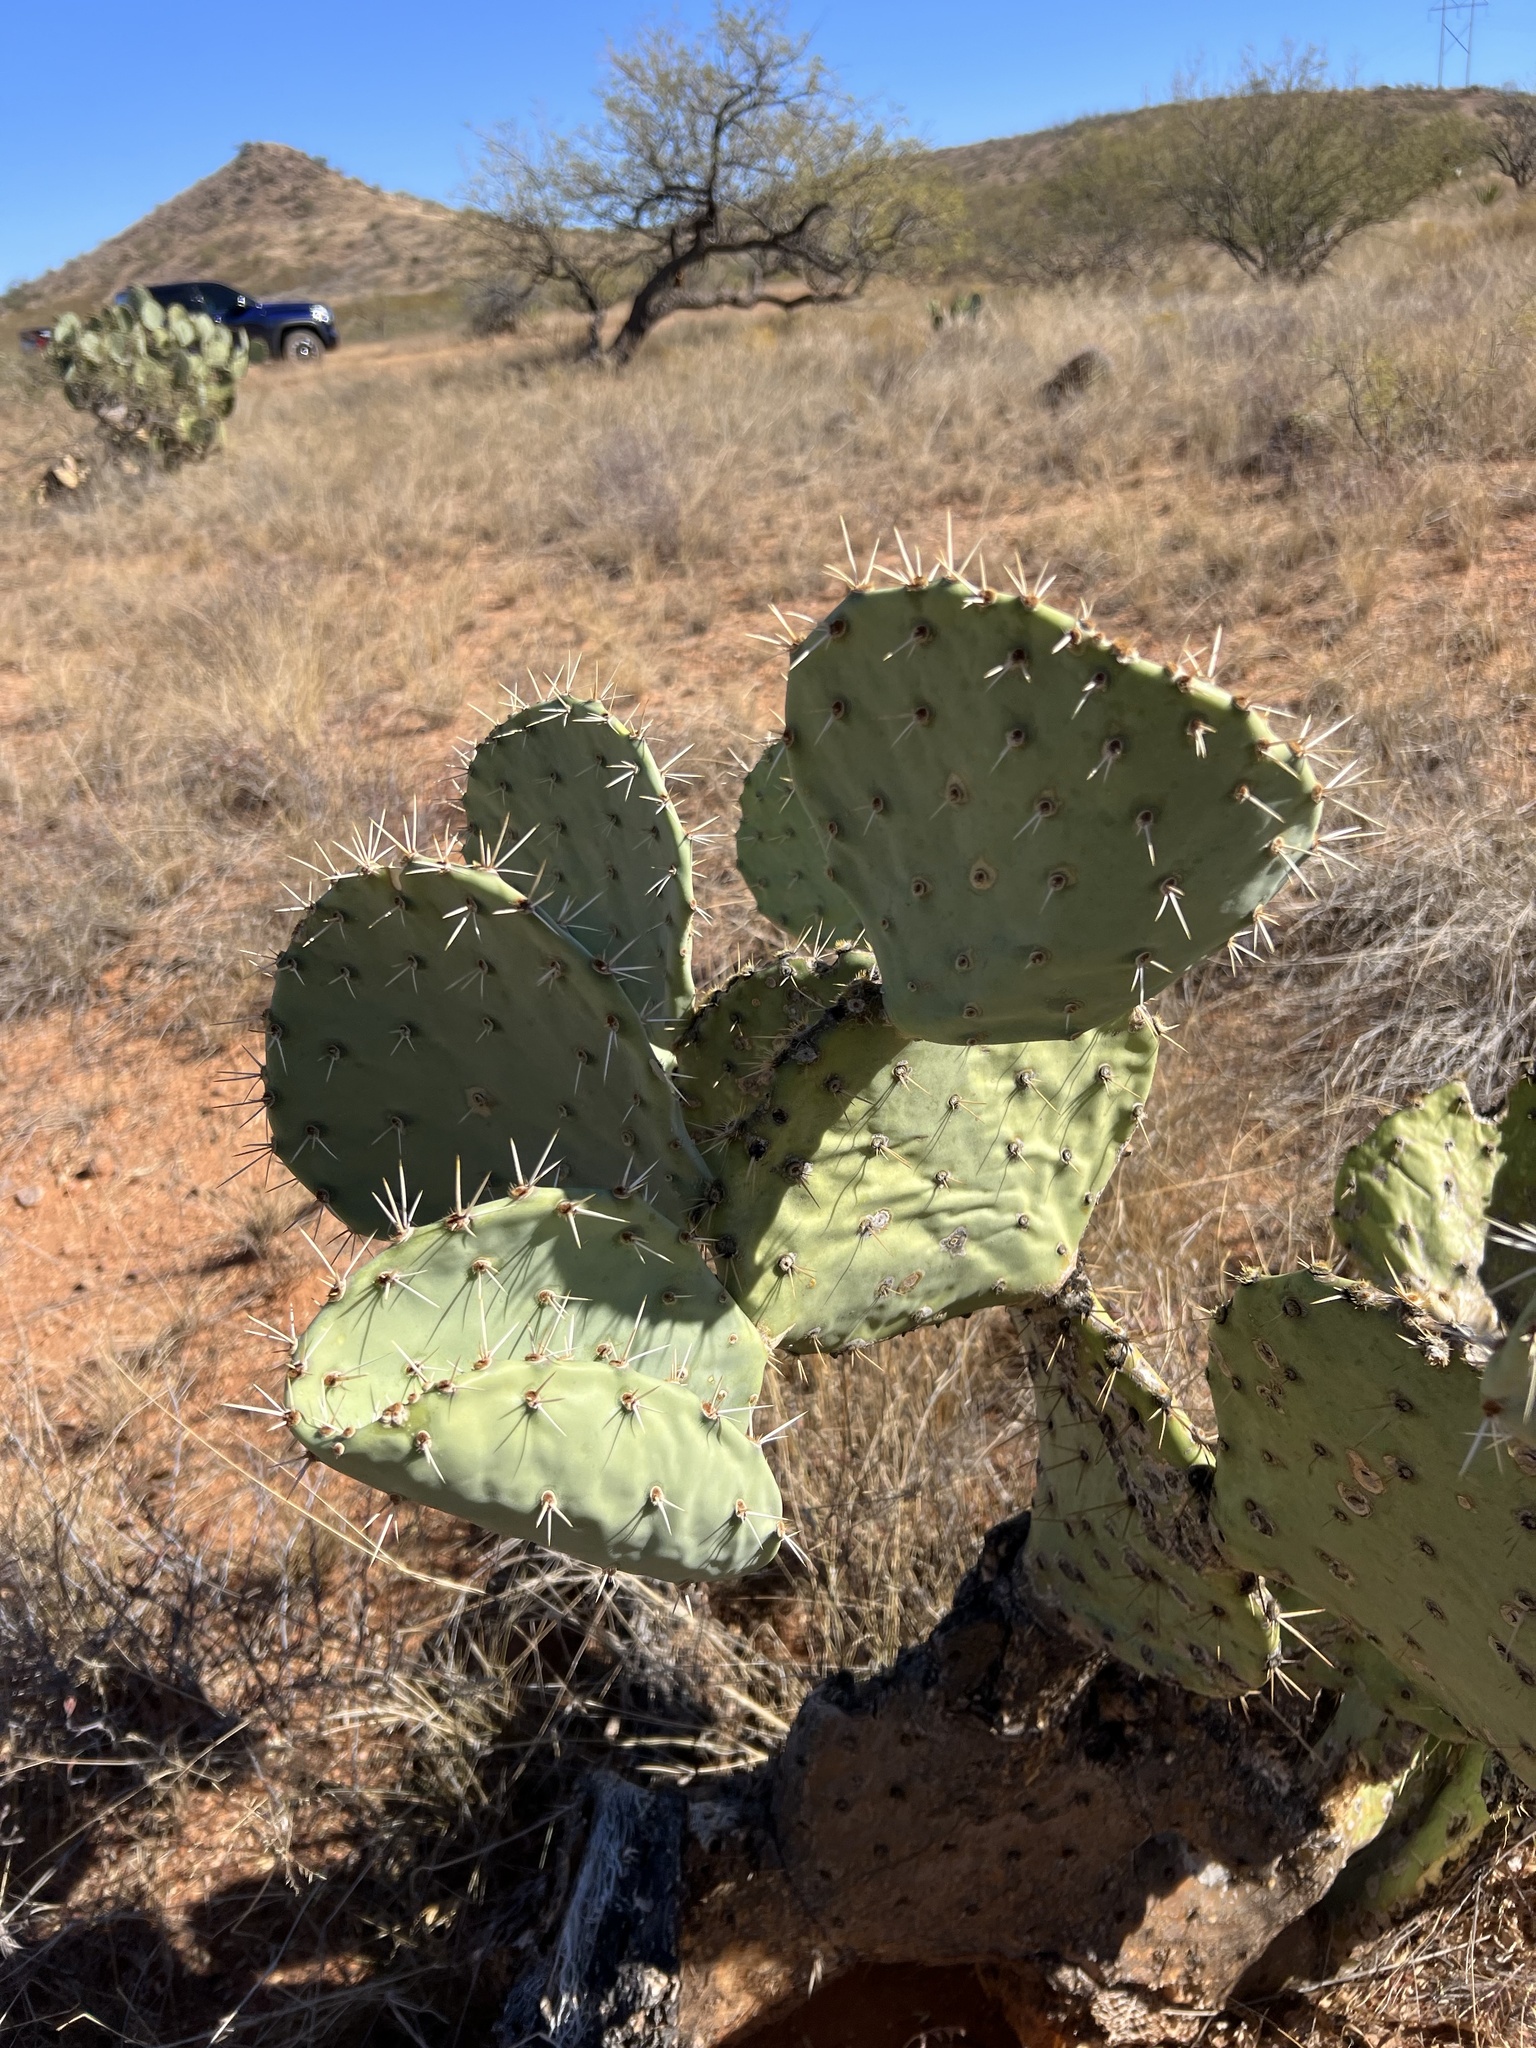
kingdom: Plantae
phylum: Tracheophyta
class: Magnoliopsida
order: Caryophyllales
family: Cactaceae
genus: Opuntia
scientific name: Opuntia engelmannii
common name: Cactus-apple
